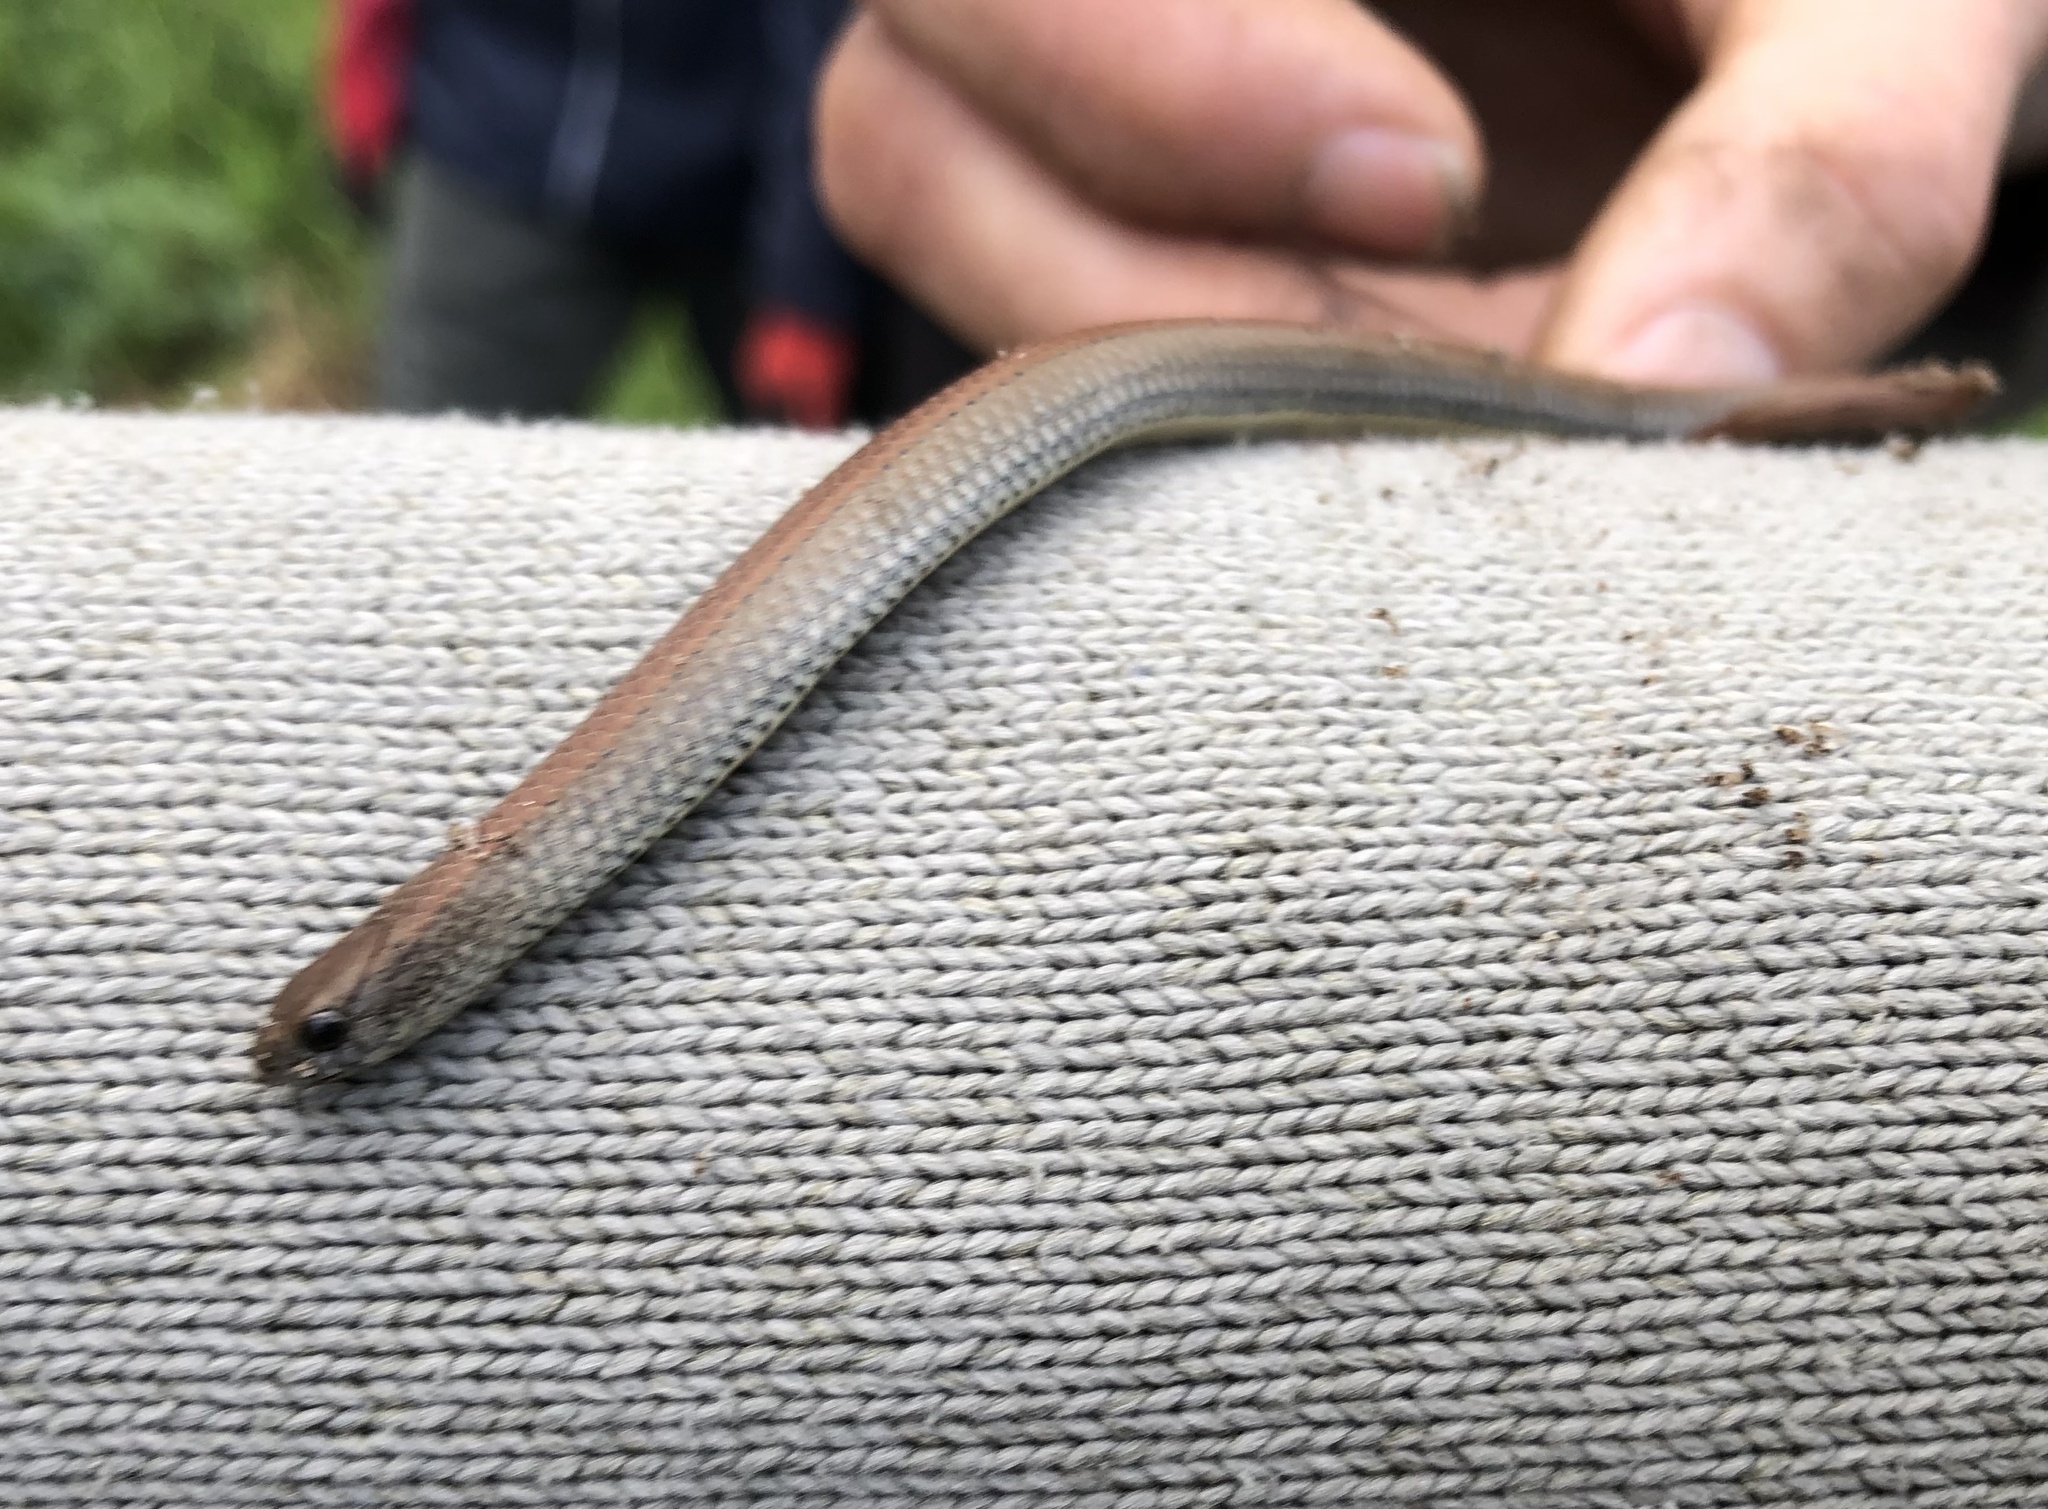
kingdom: Animalia
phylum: Chordata
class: Squamata
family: Pseudoxyrhophiidae
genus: Duberria
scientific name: Duberria lutrix
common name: Common slug eater
